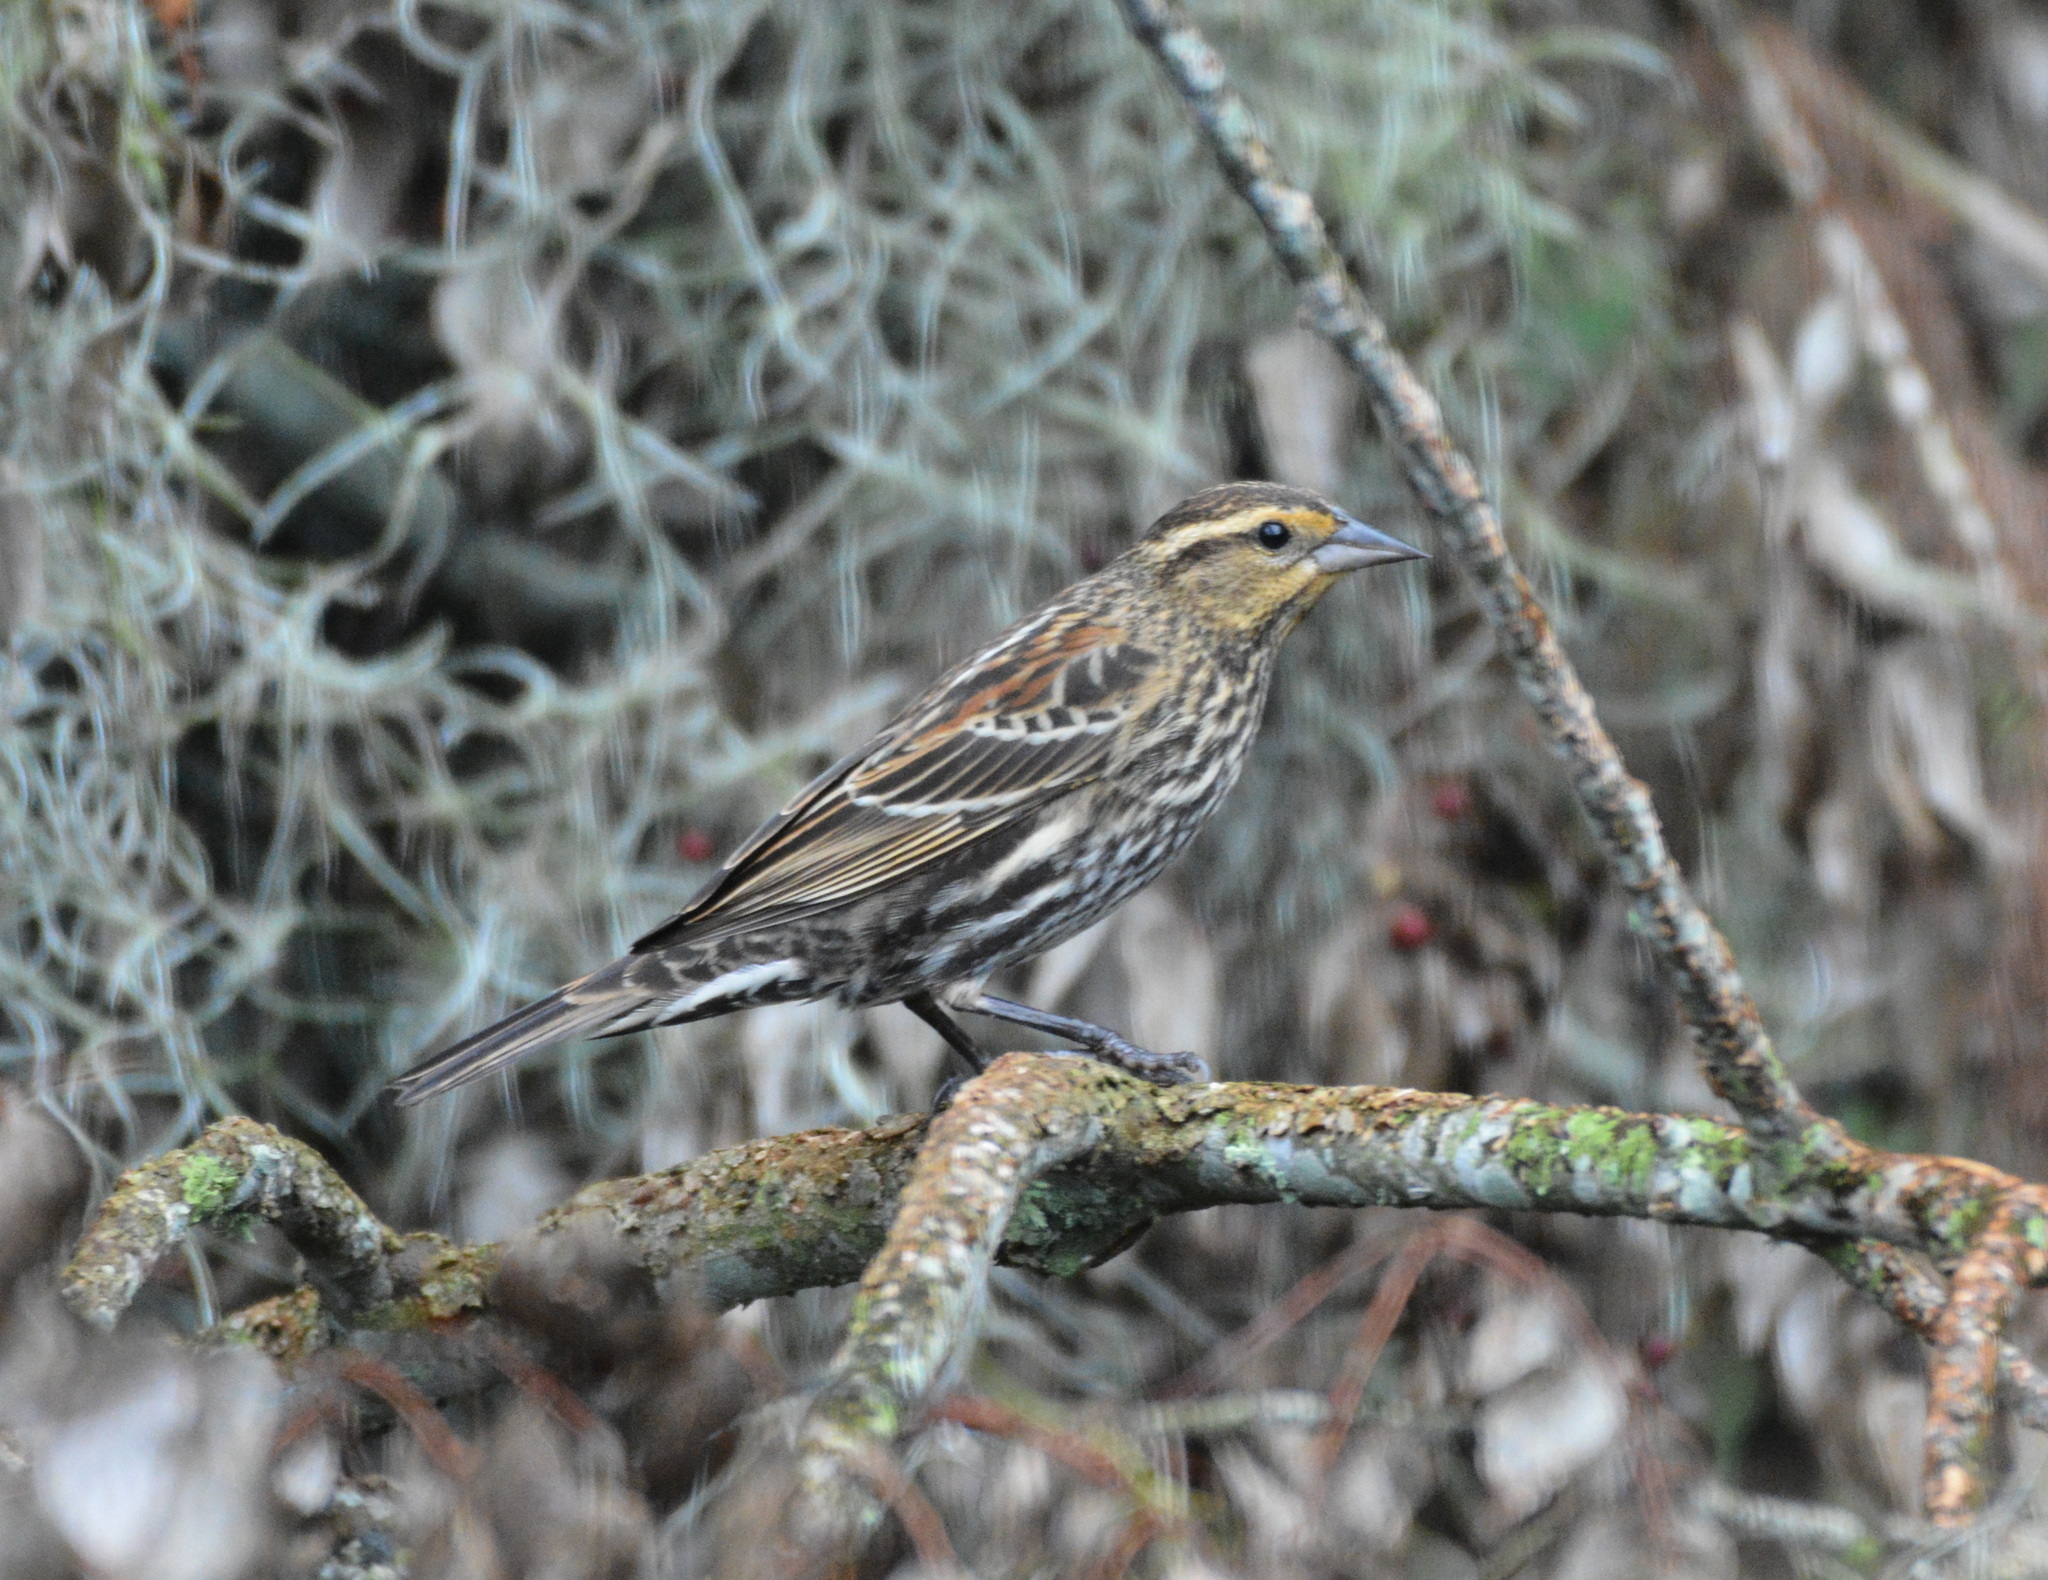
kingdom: Animalia
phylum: Chordata
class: Aves
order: Passeriformes
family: Icteridae
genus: Agelaius
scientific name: Agelaius phoeniceus
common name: Red-winged blackbird
